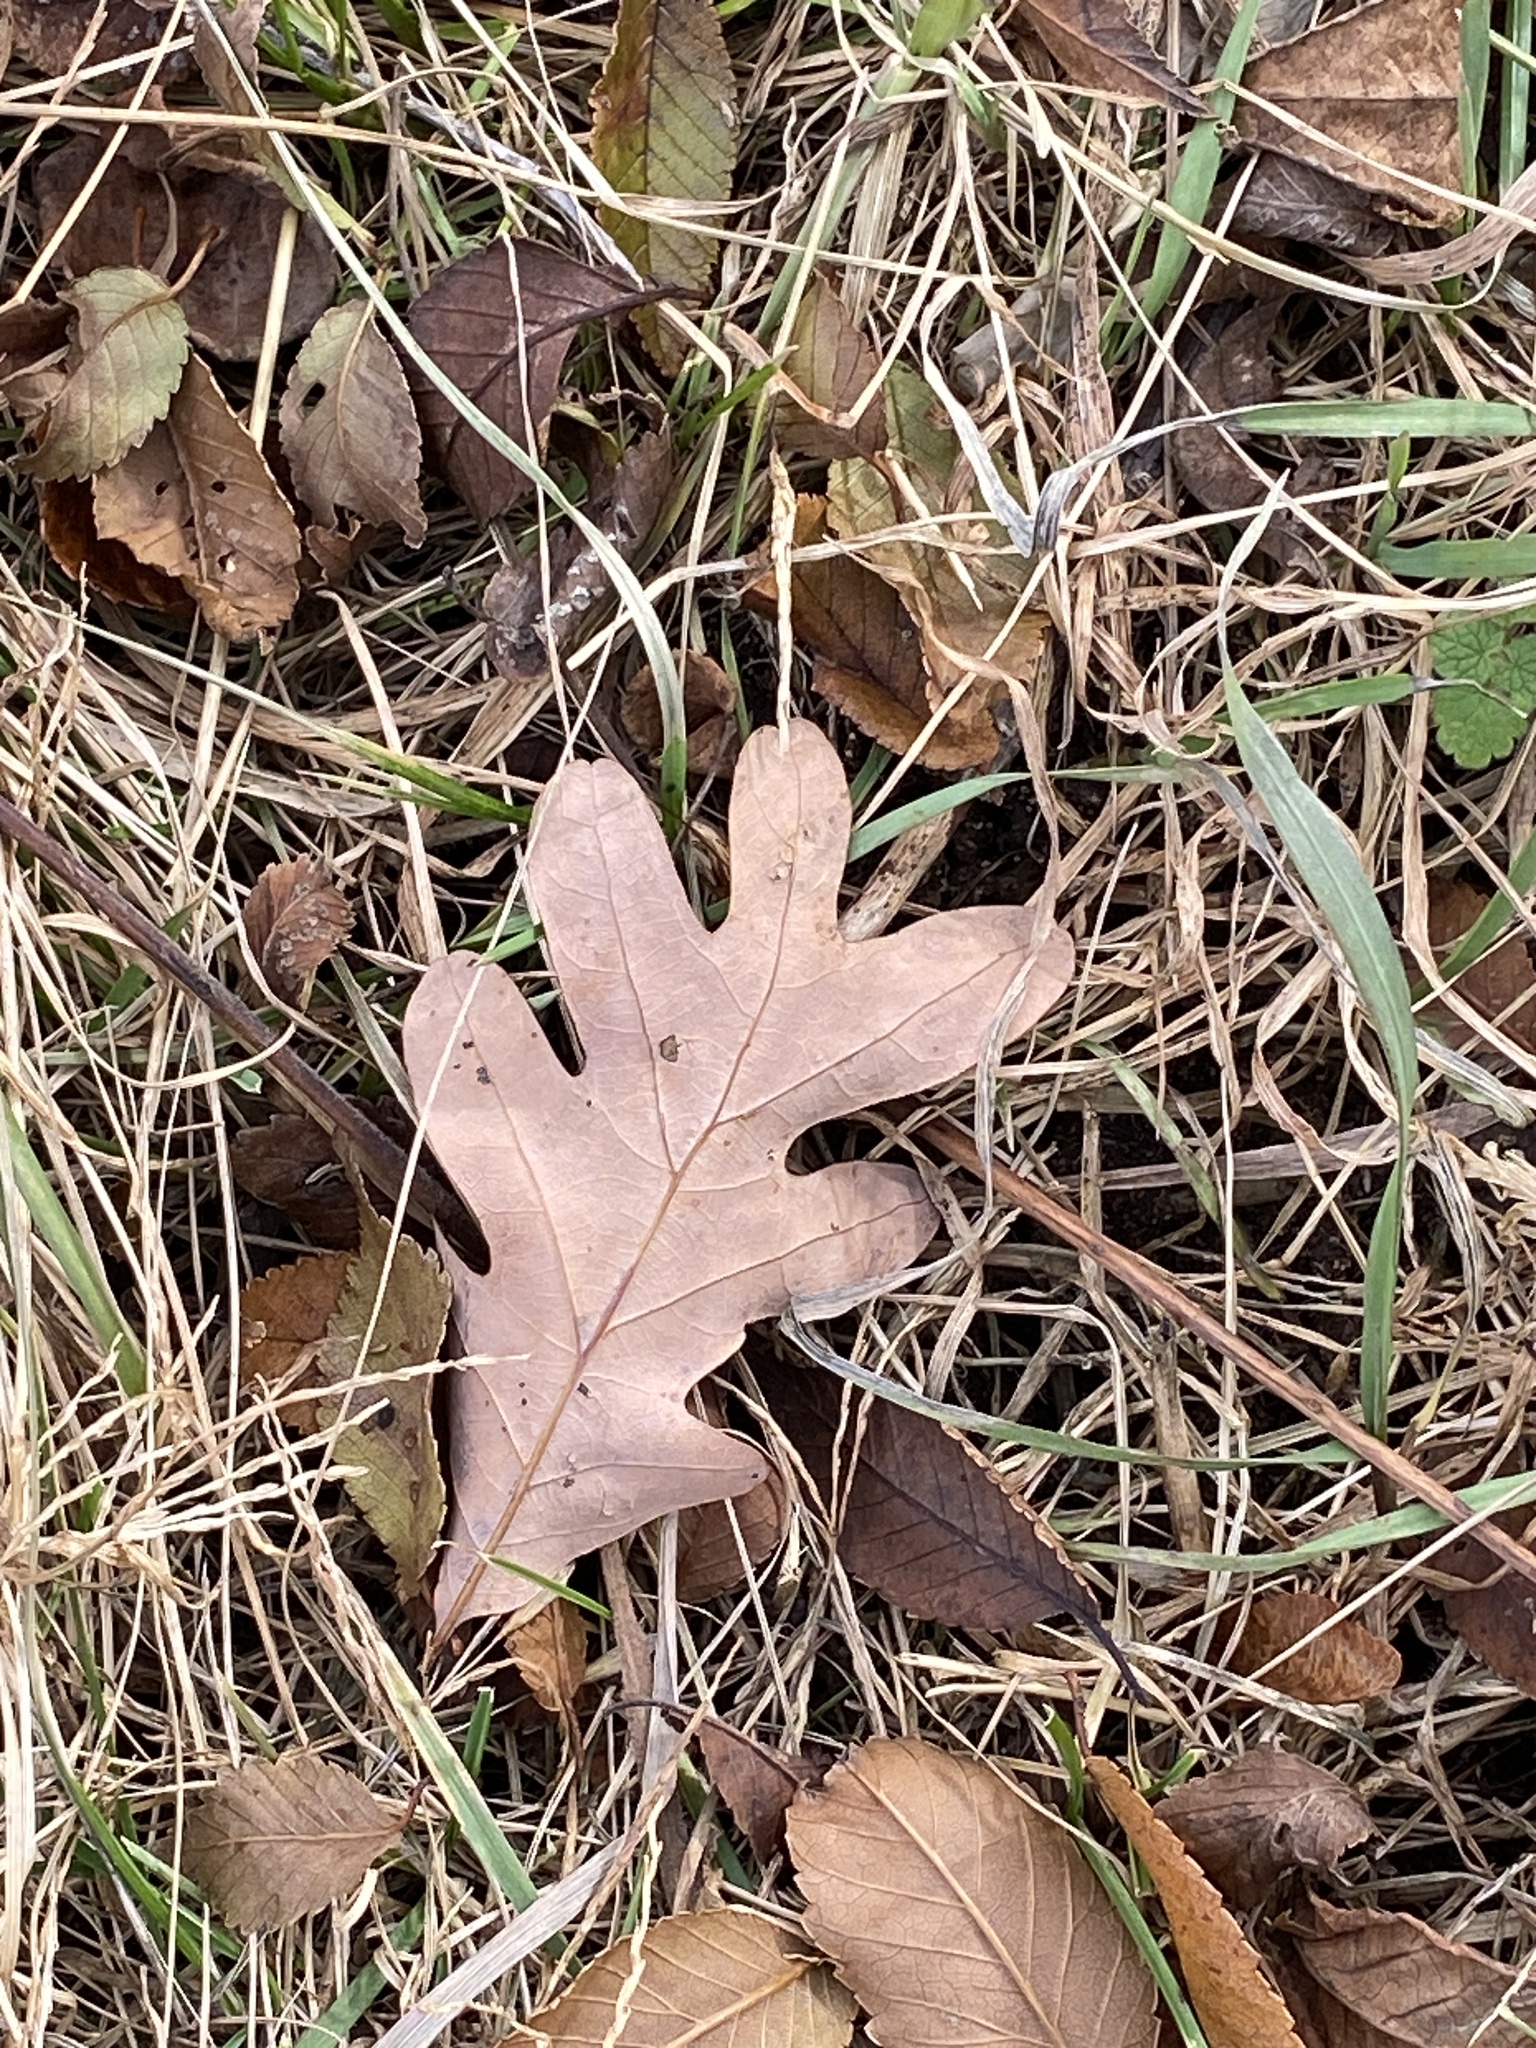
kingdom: Plantae
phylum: Tracheophyta
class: Magnoliopsida
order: Fagales
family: Fagaceae
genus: Quercus
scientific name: Quercus alba
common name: White oak
